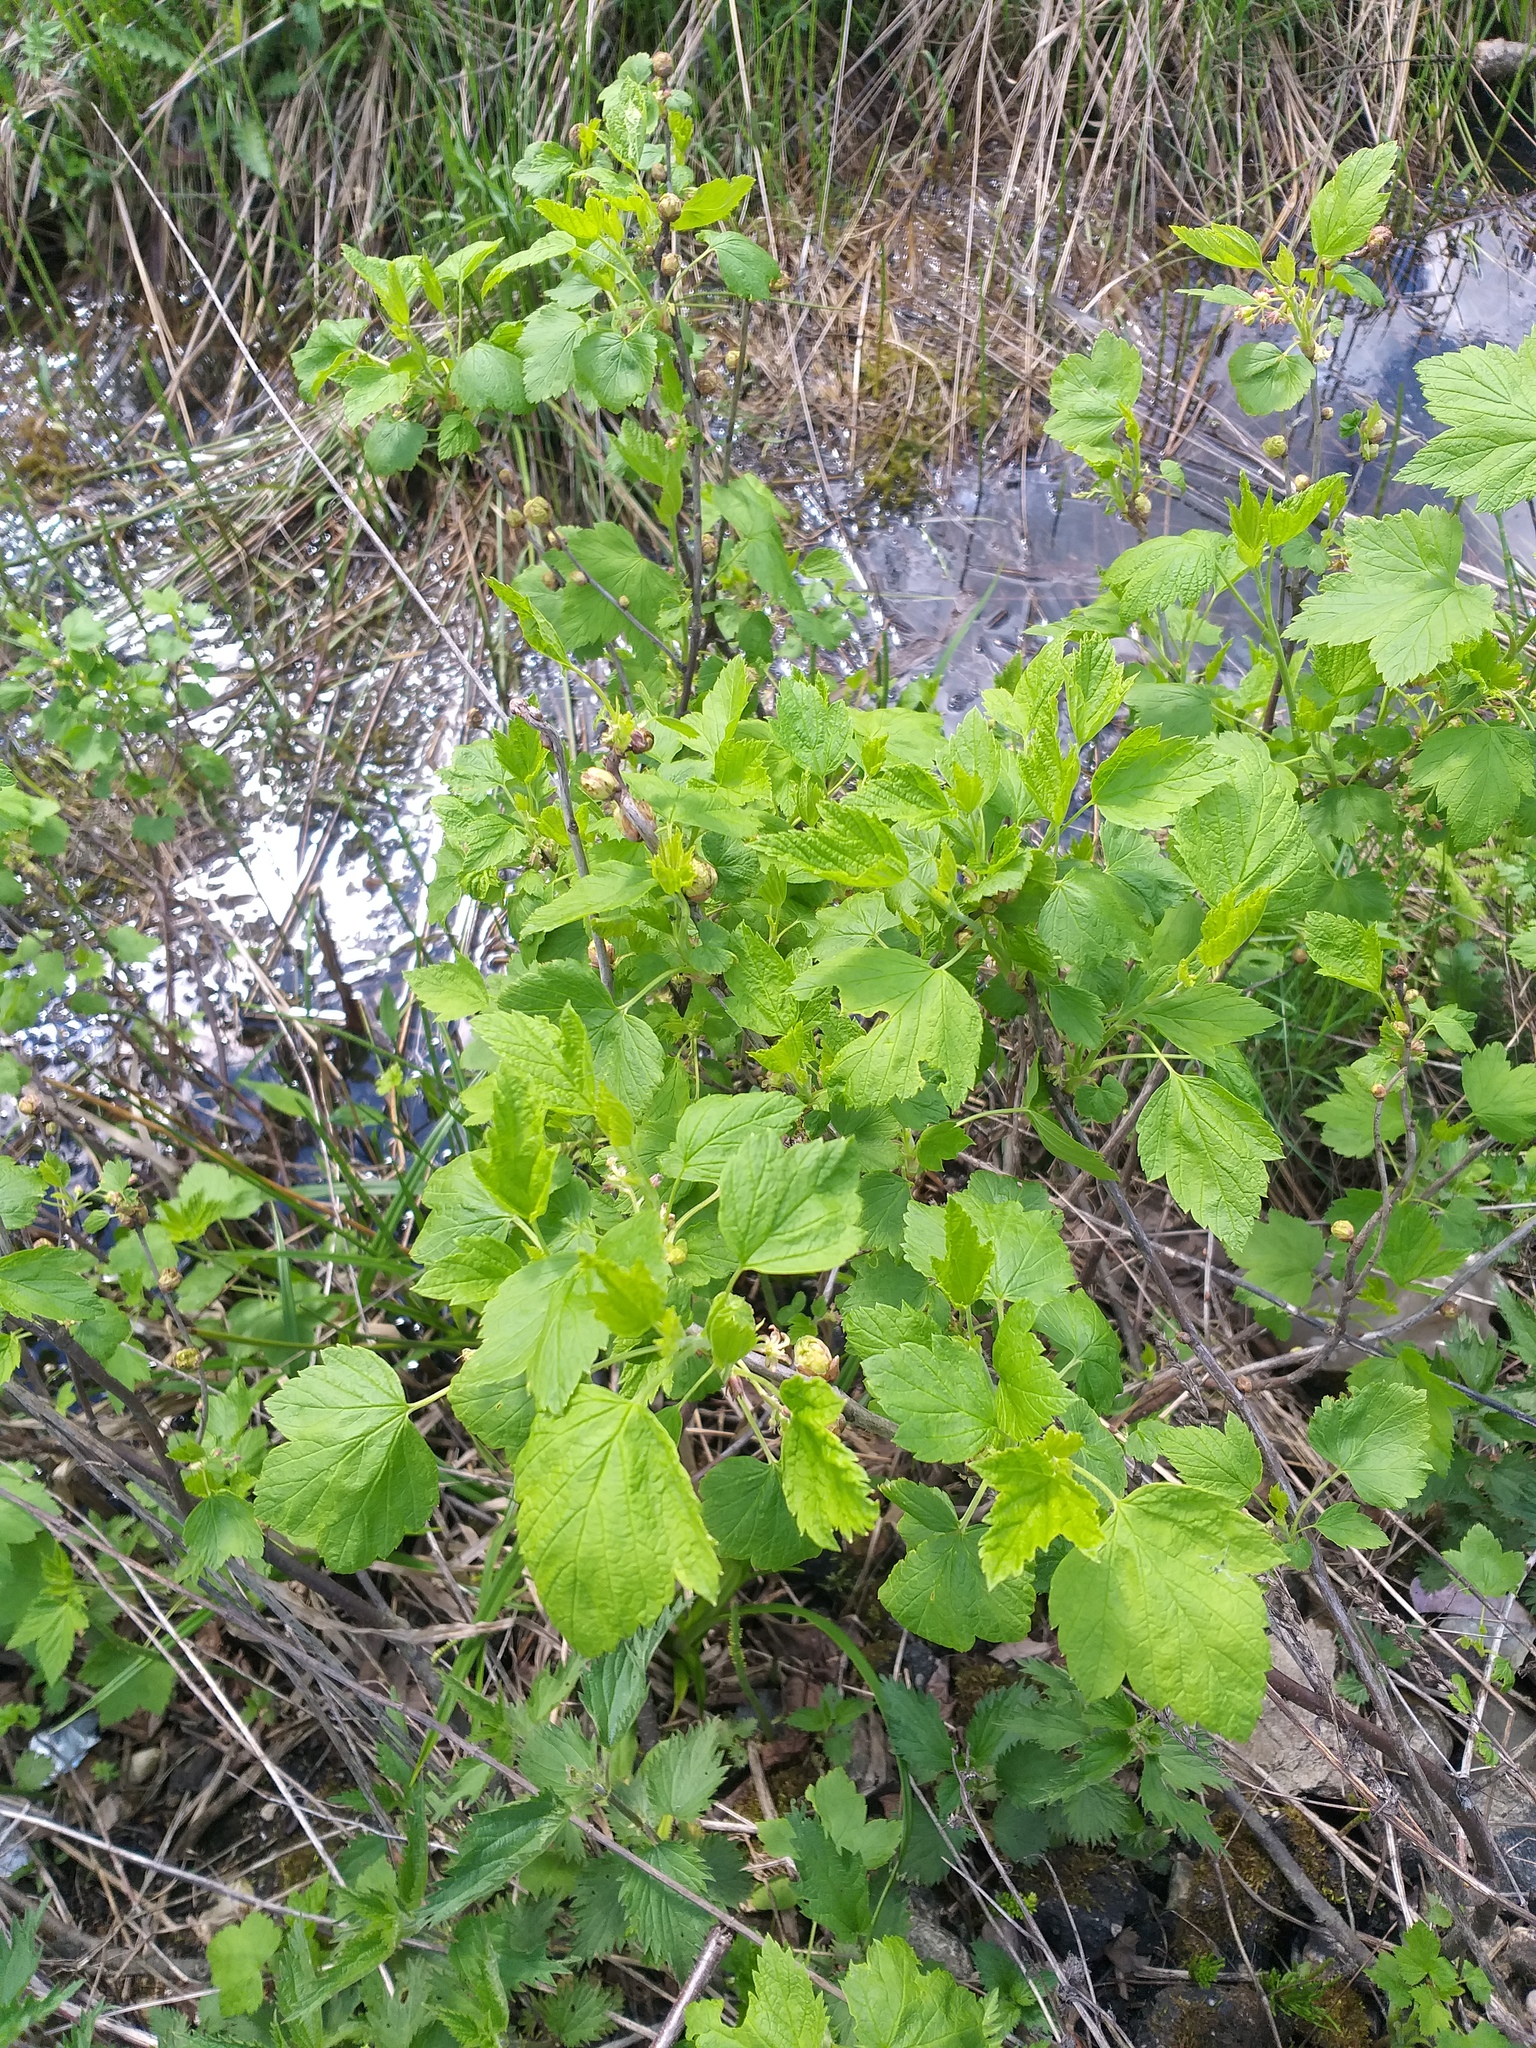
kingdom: Plantae
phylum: Tracheophyta
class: Magnoliopsida
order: Saxifragales
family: Grossulariaceae
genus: Ribes
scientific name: Ribes nigrum
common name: Black currant
